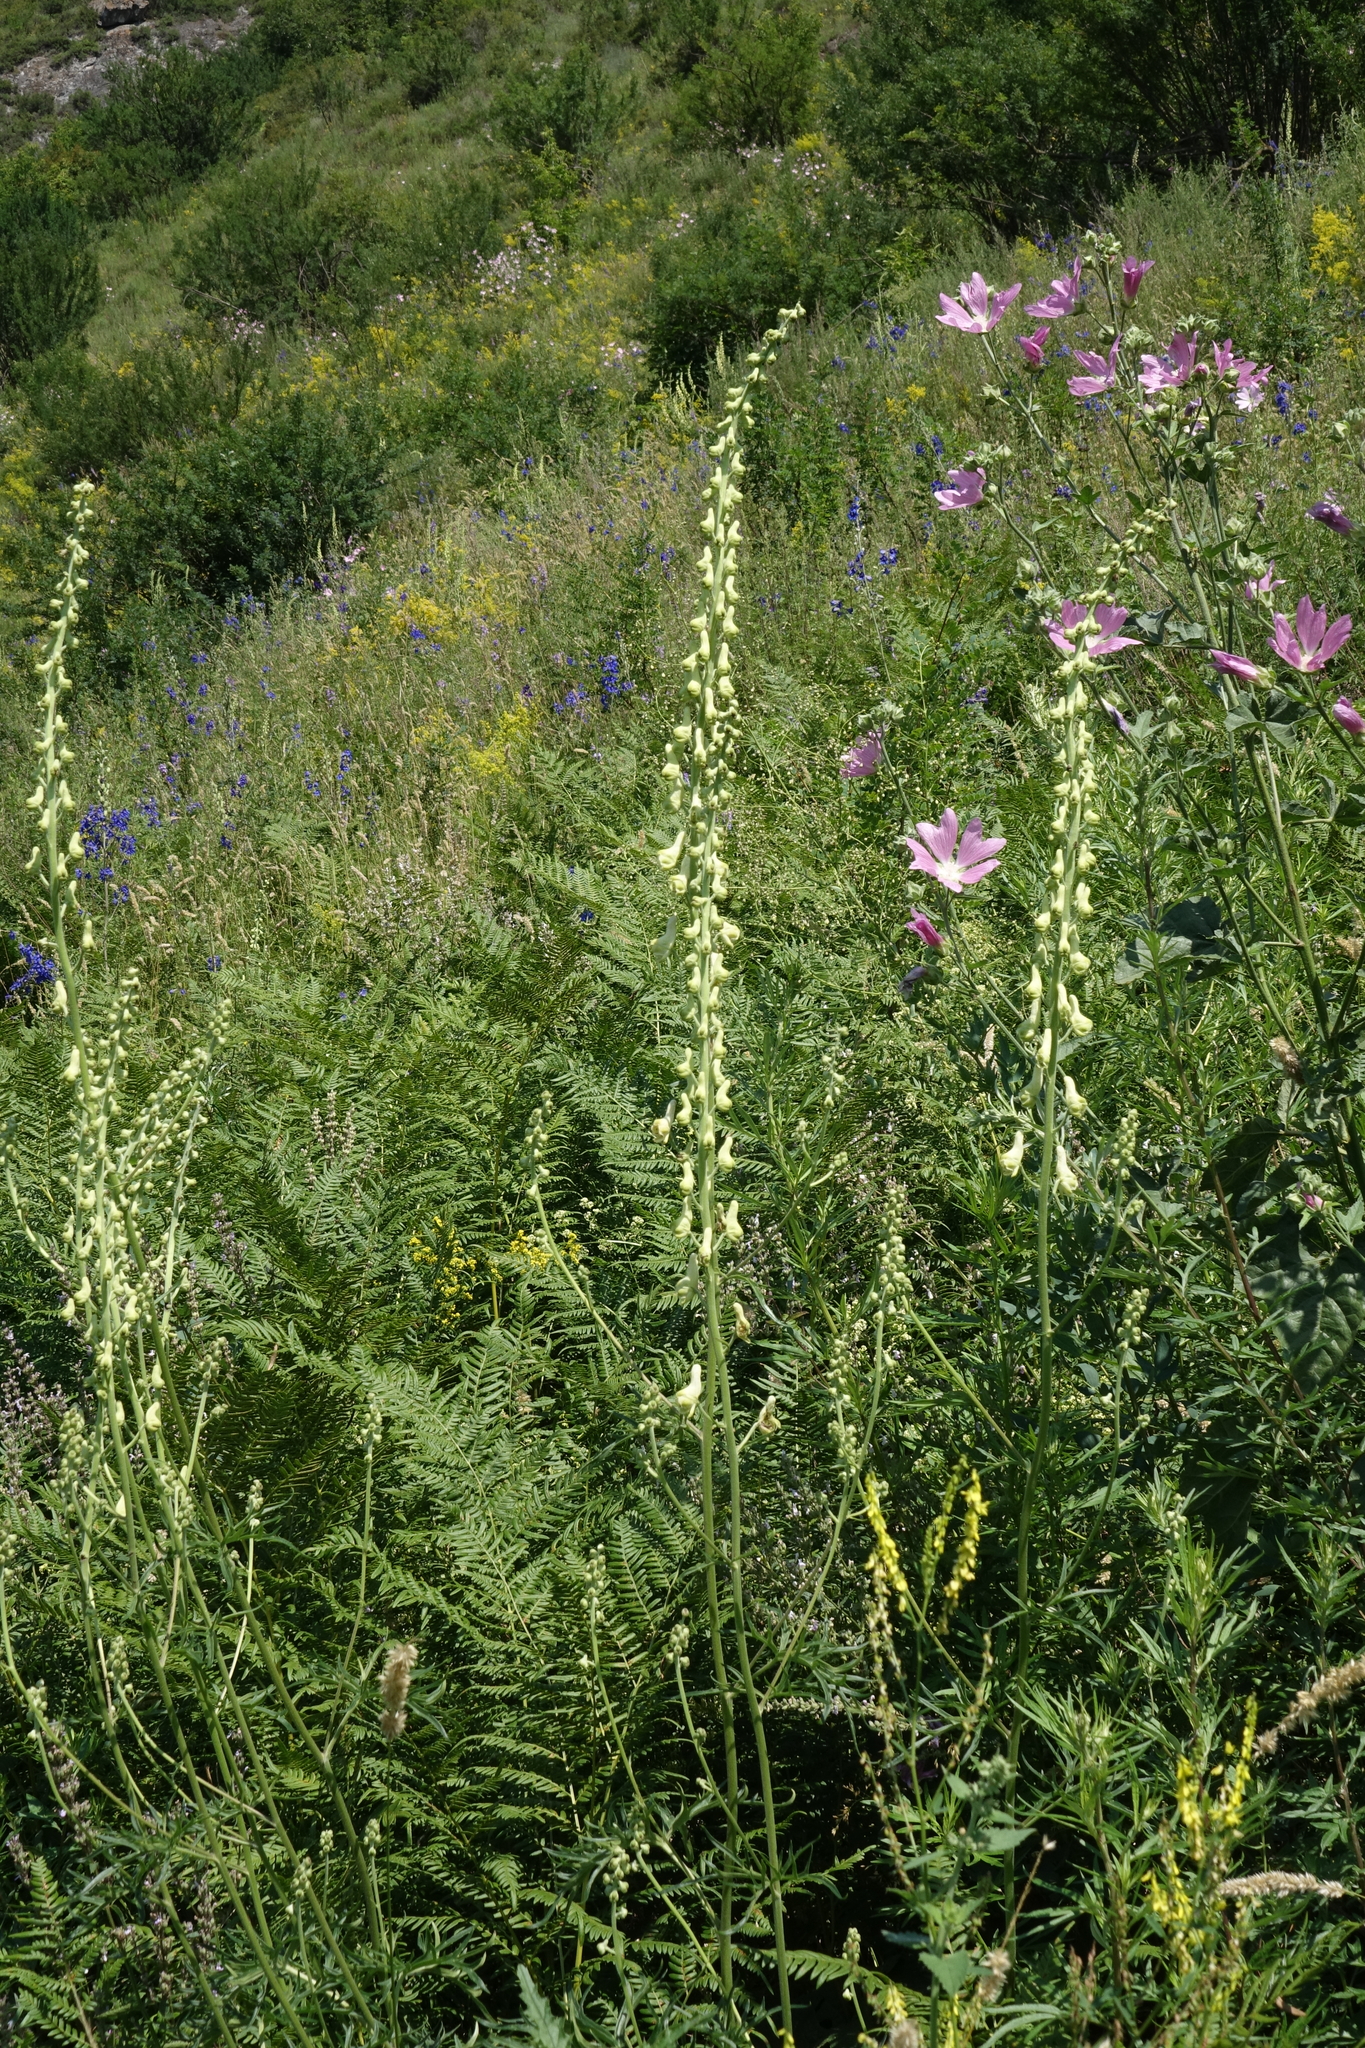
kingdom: Plantae
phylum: Tracheophyta
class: Magnoliopsida
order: Malvales
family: Malvaceae
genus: Malva
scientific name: Malva thuringiaca
